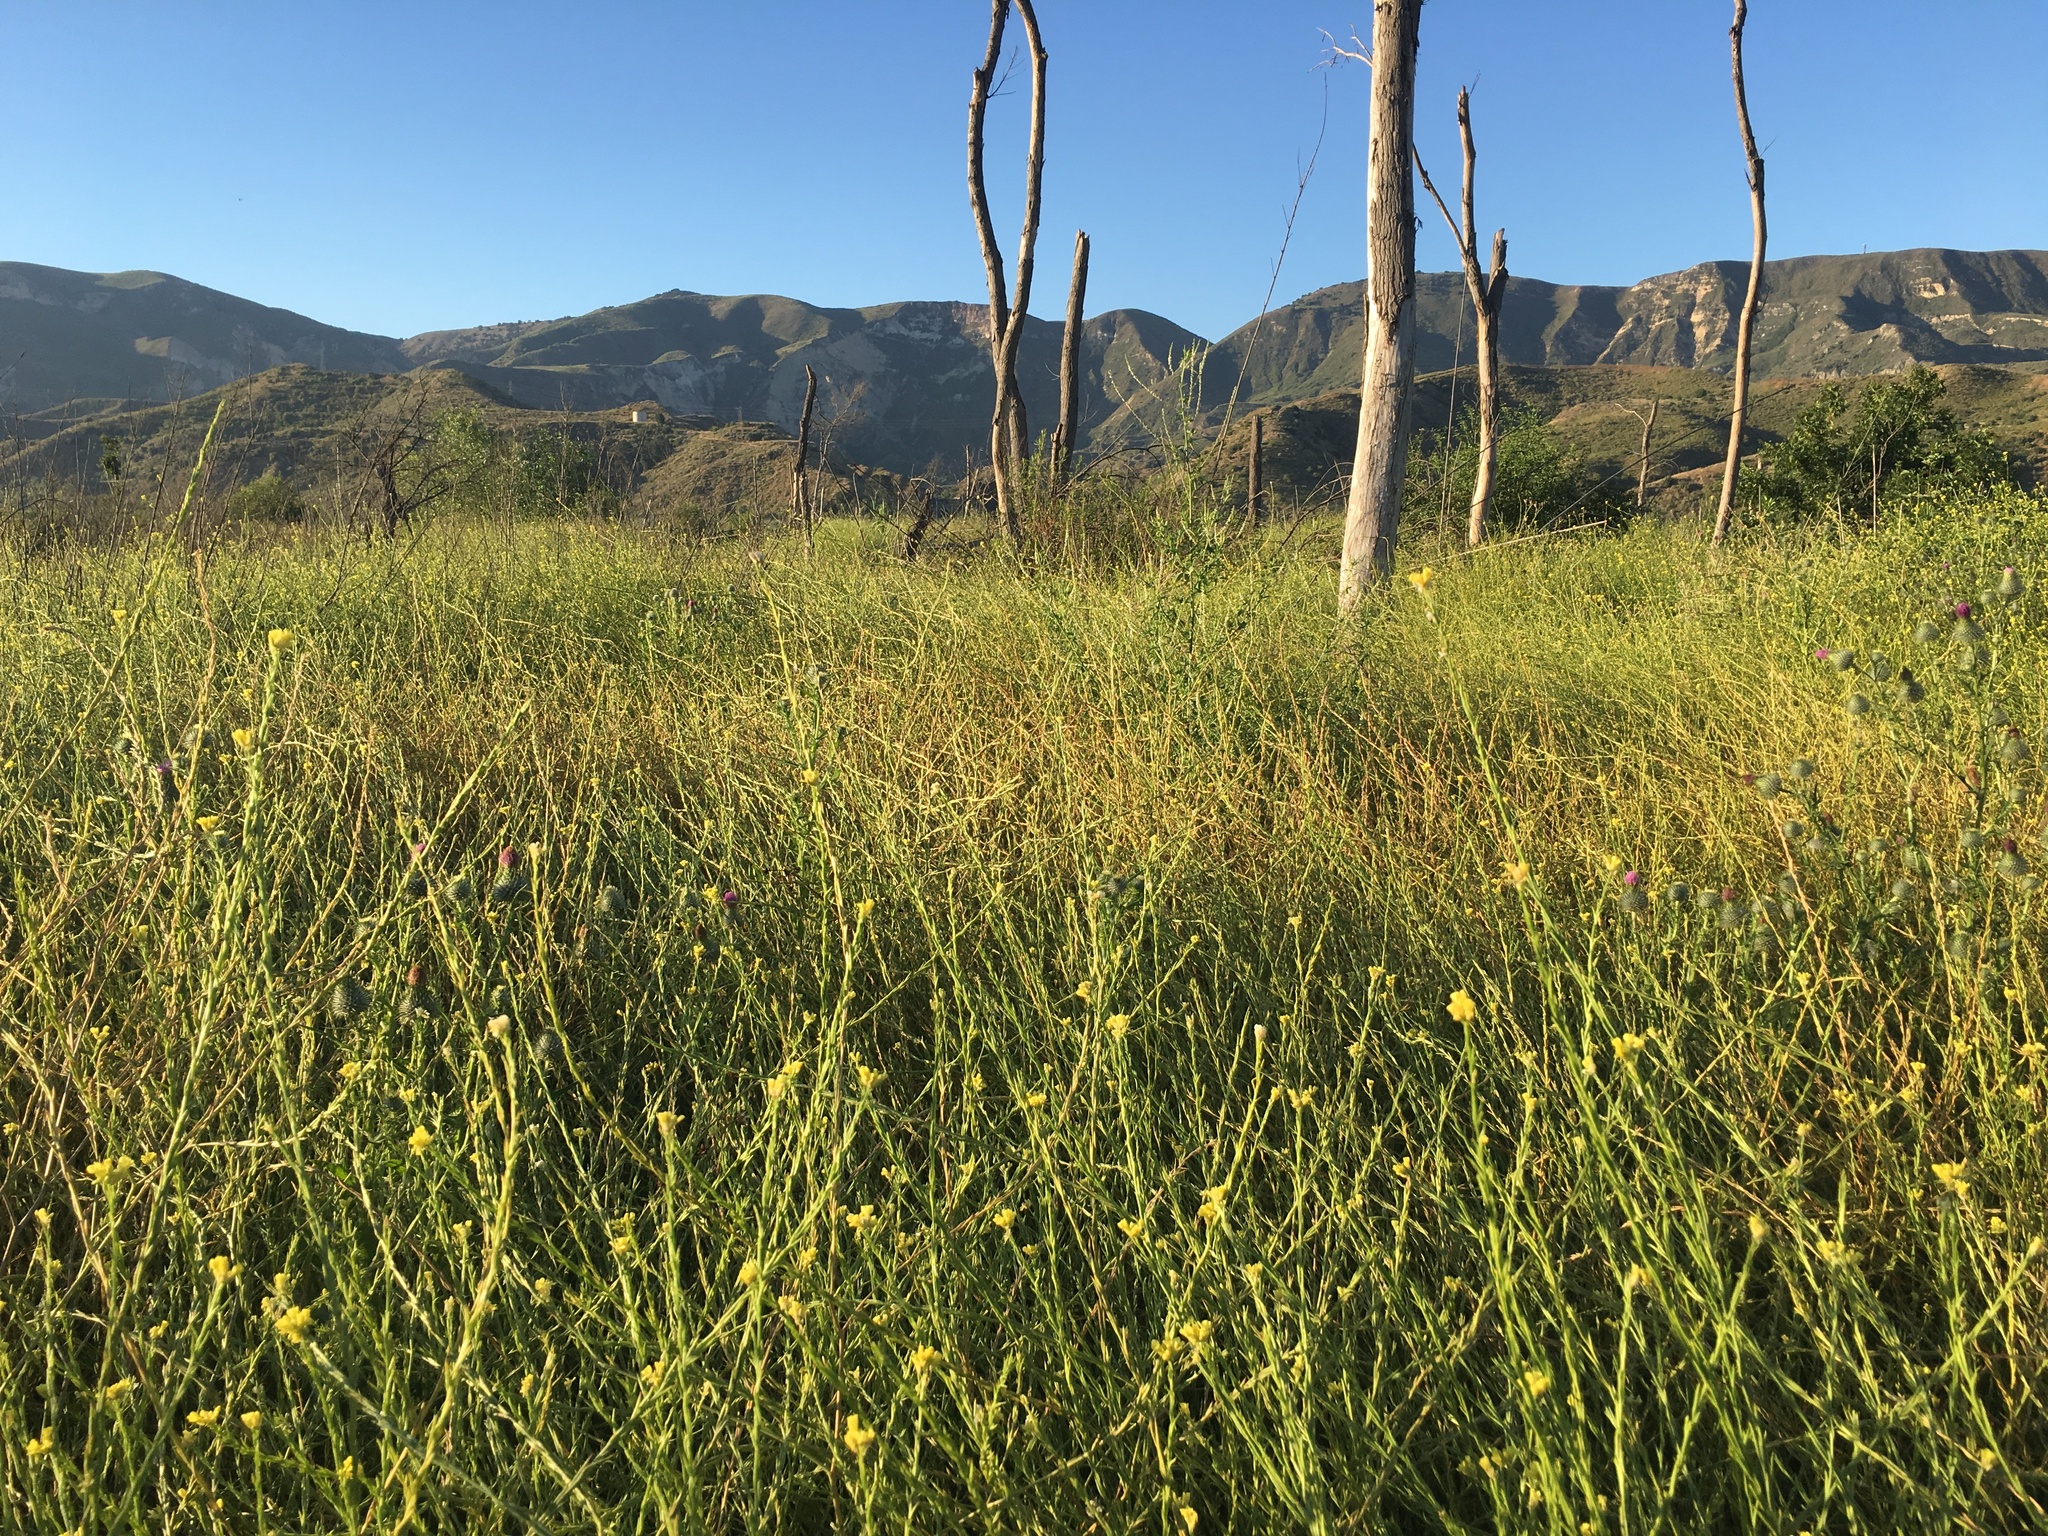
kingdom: Plantae
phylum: Tracheophyta
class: Magnoliopsida
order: Brassicales
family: Brassicaceae
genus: Hirschfeldia
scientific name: Hirschfeldia incana
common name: Hoary mustard
